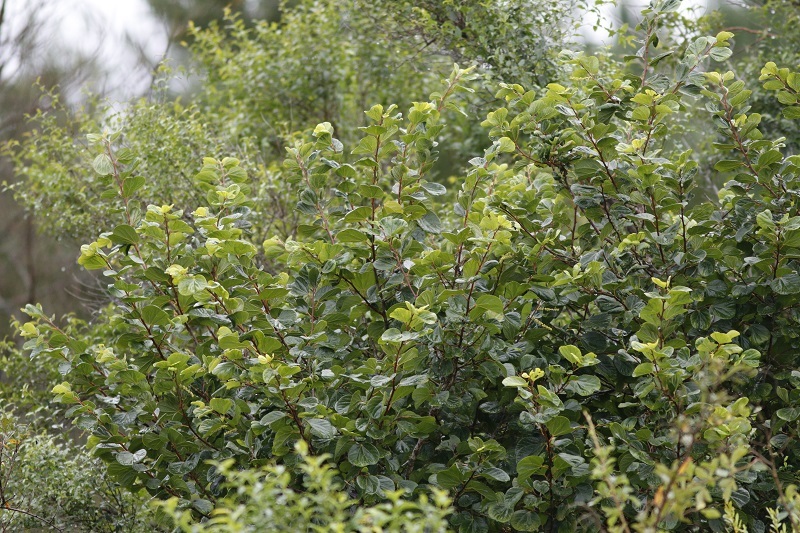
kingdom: Plantae
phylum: Tracheophyta
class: Magnoliopsida
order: Malpighiales
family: Salicaceae
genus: Trimeria
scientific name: Trimeria grandifolia
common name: Wild mulberry
